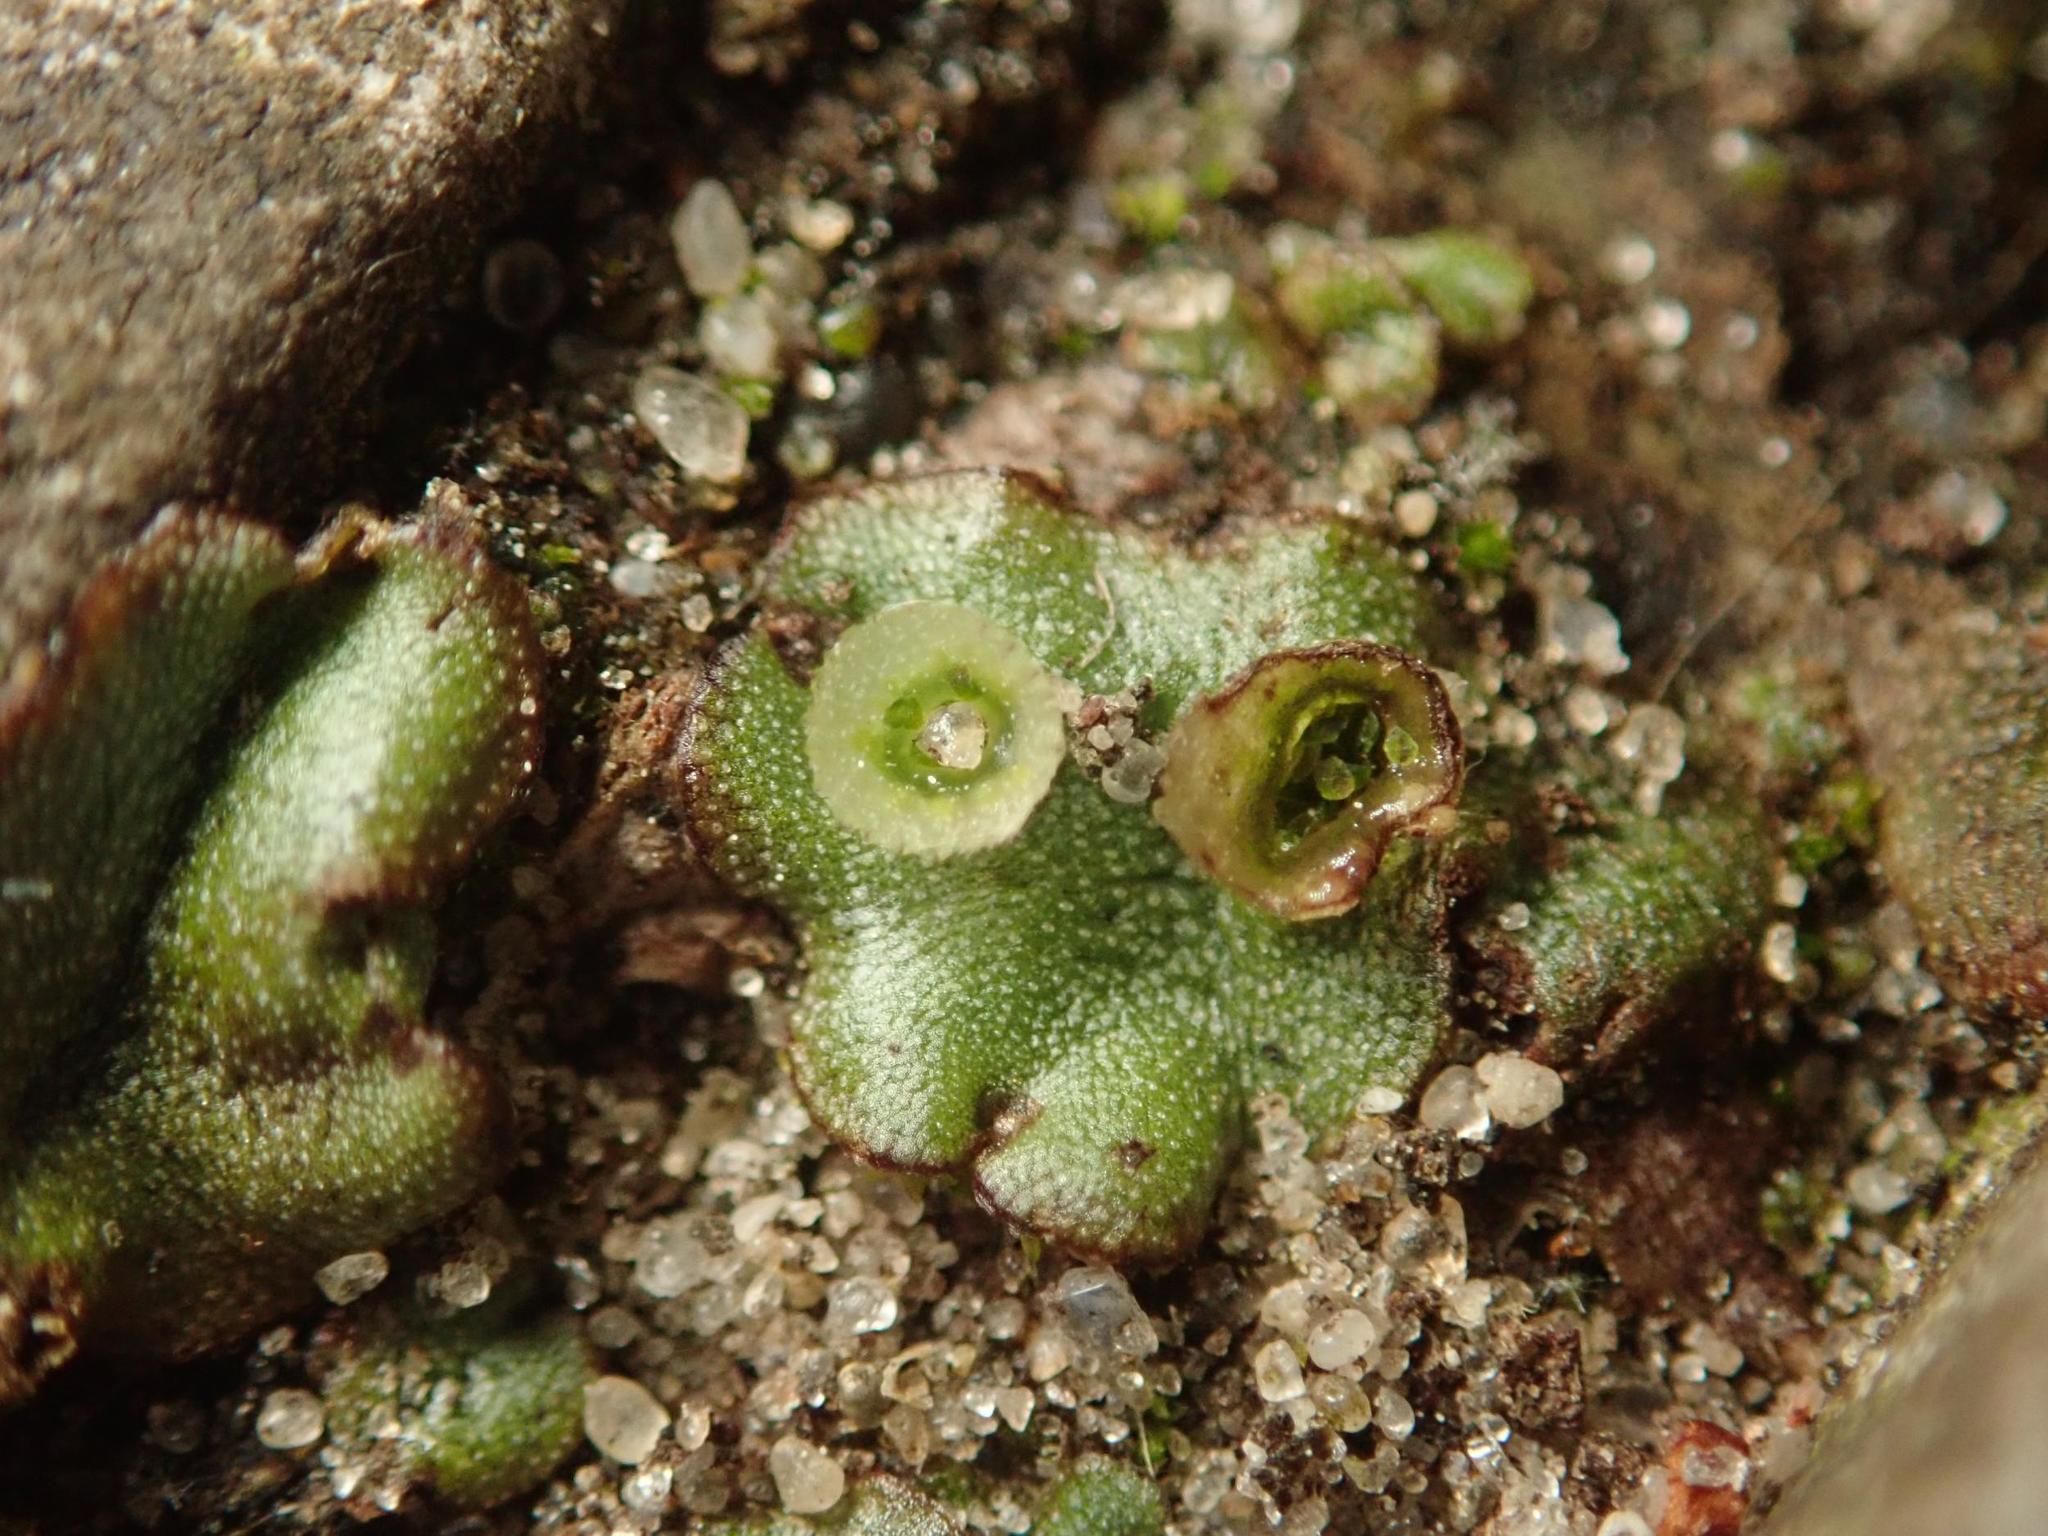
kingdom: Plantae
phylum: Marchantiophyta
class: Marchantiopsida
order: Marchantiales
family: Marchantiaceae
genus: Marchantia
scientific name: Marchantia polymorpha
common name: Common liverwort
